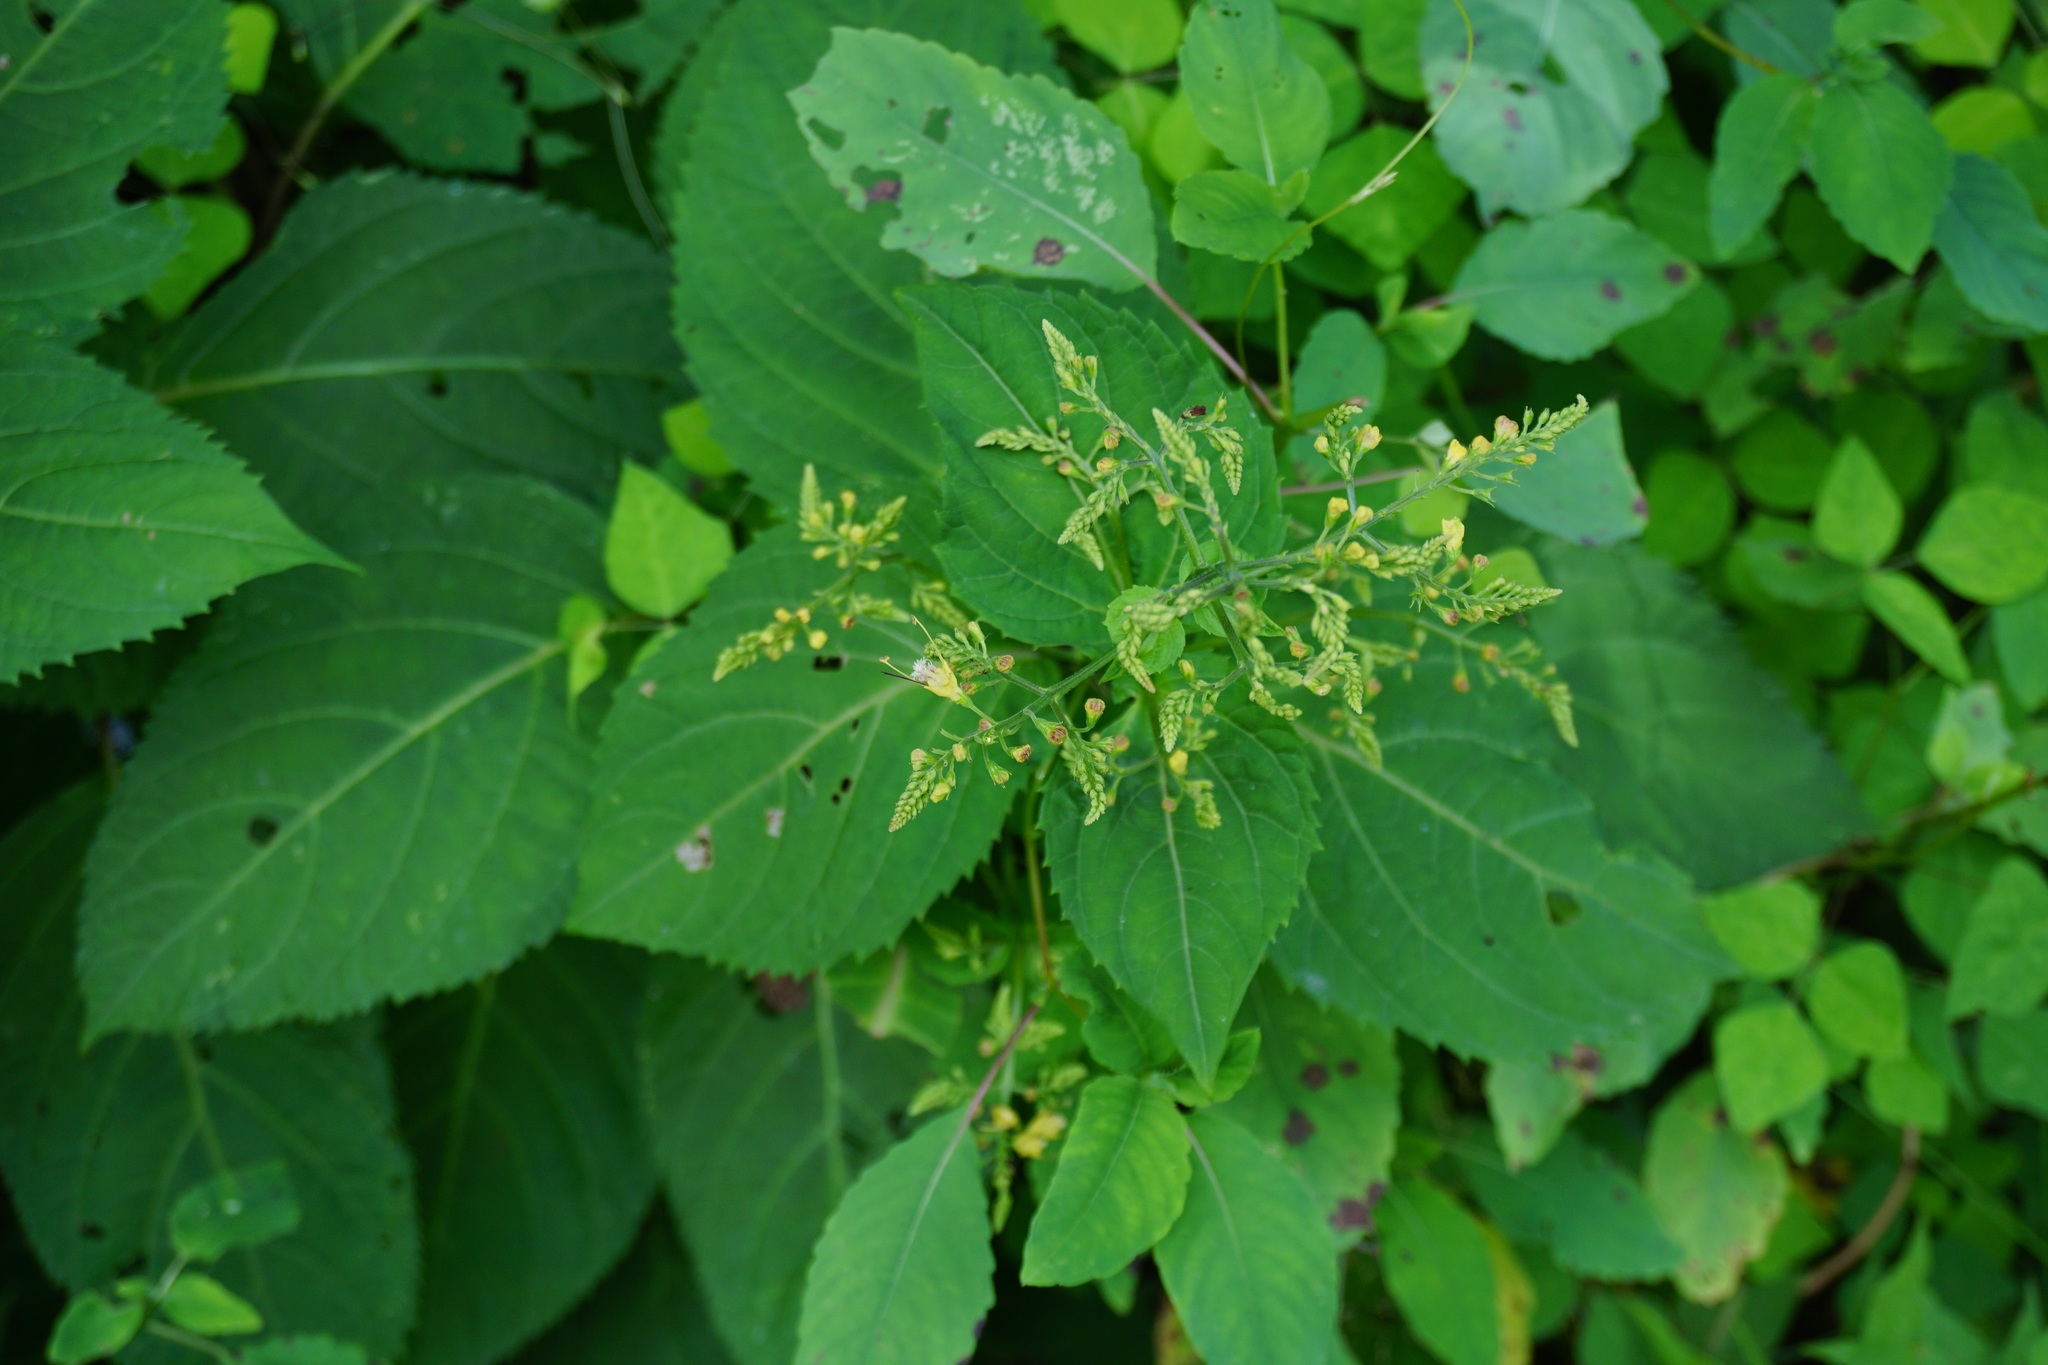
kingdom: Plantae
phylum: Tracheophyta
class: Magnoliopsida
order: Lamiales
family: Lamiaceae
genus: Collinsonia
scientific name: Collinsonia canadensis
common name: Northern horsebalm
